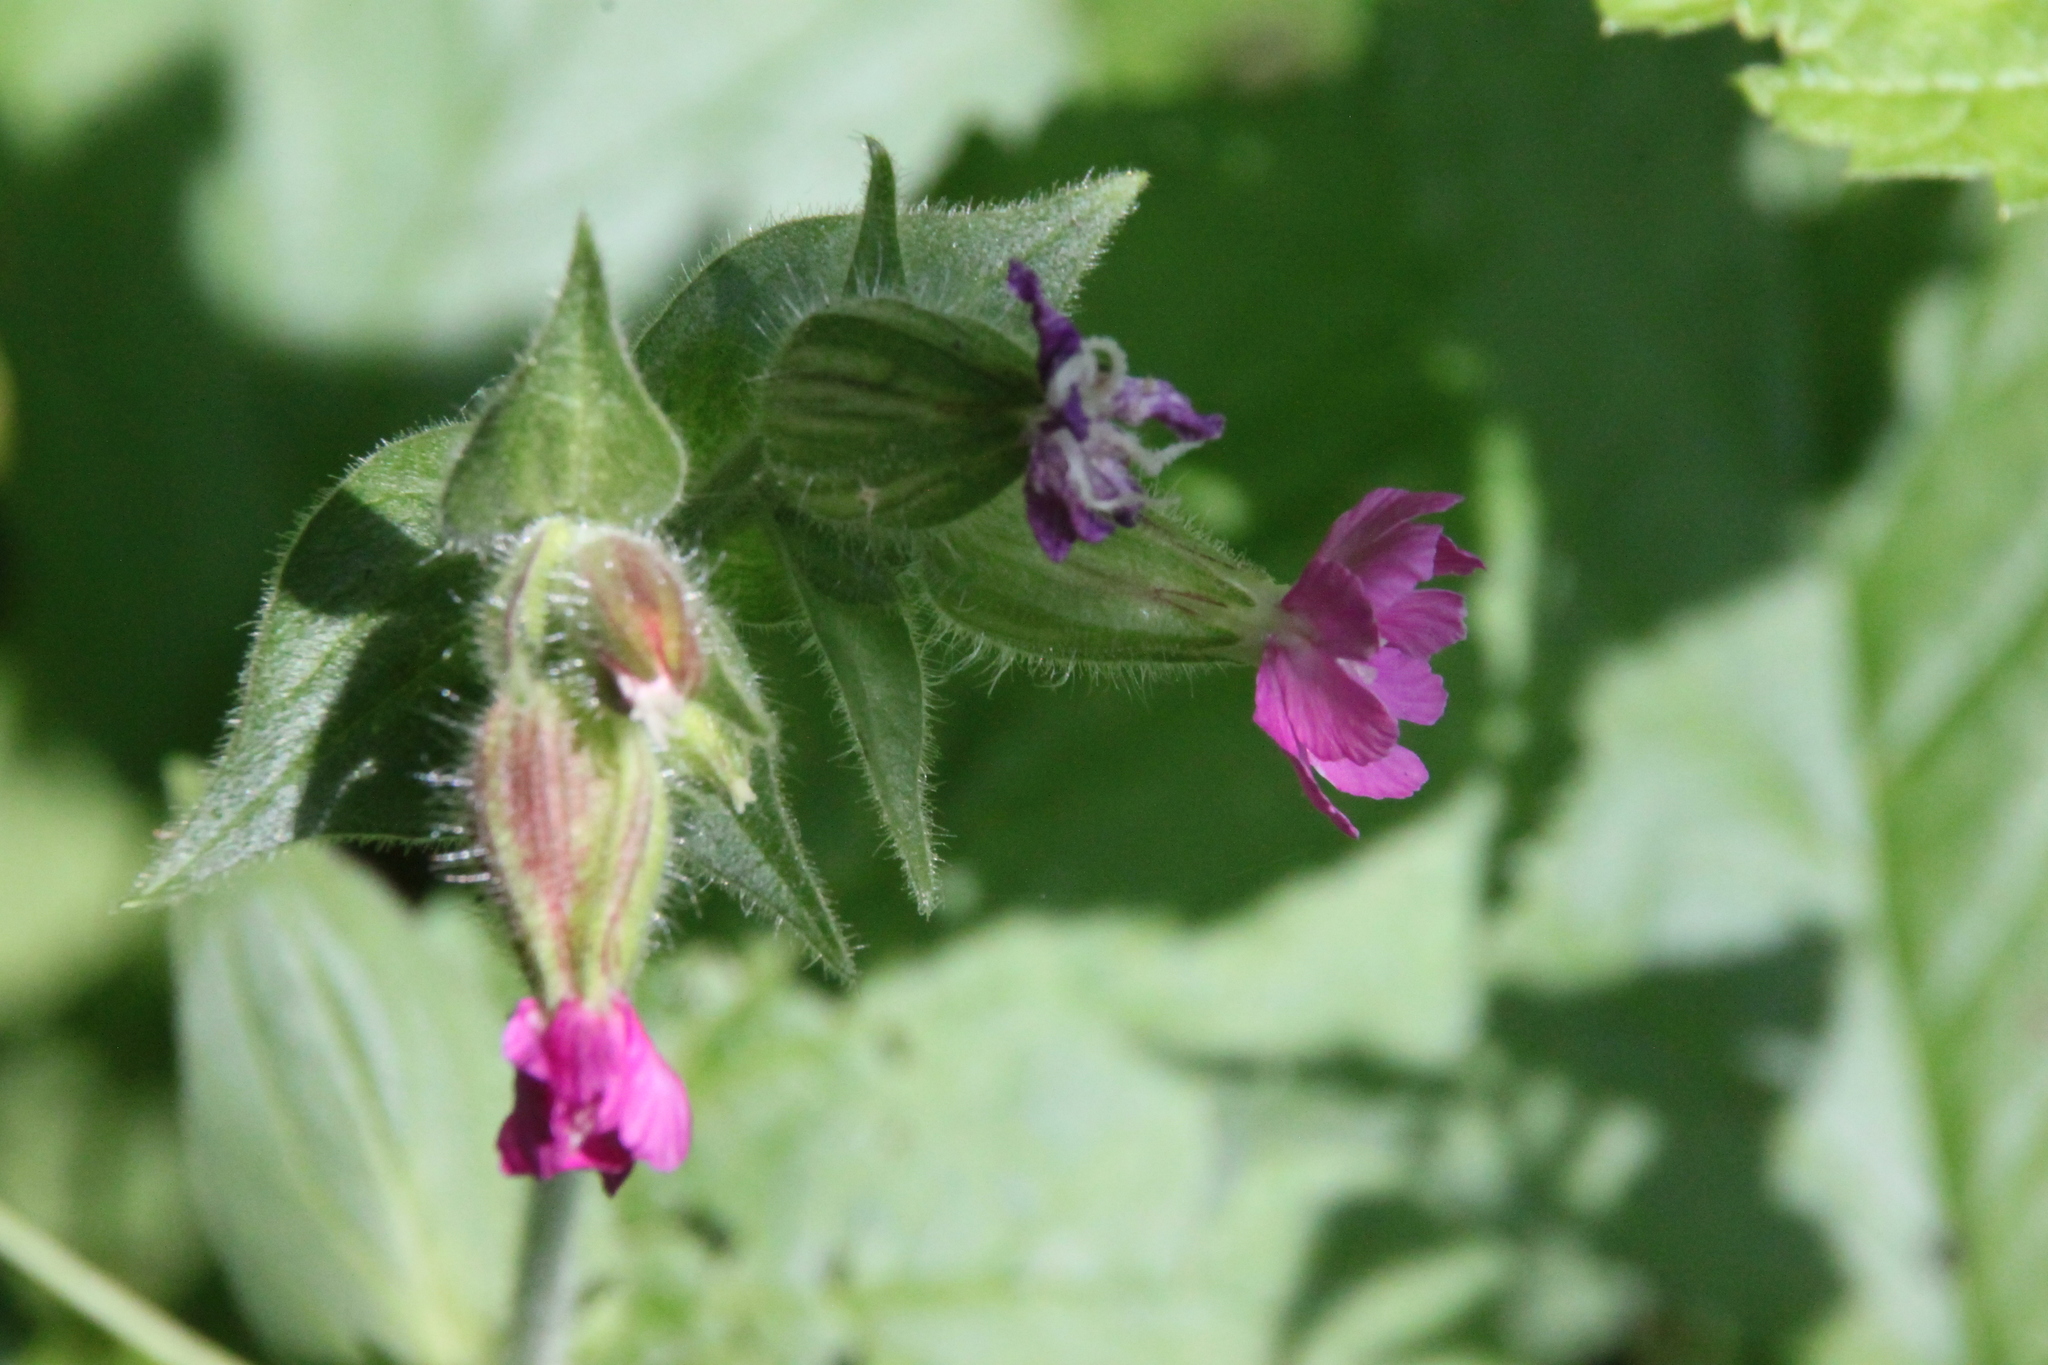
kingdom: Plantae
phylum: Tracheophyta
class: Magnoliopsida
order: Caryophyllales
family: Caryophyllaceae
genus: Silene
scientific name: Silene dioica
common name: Red campion
